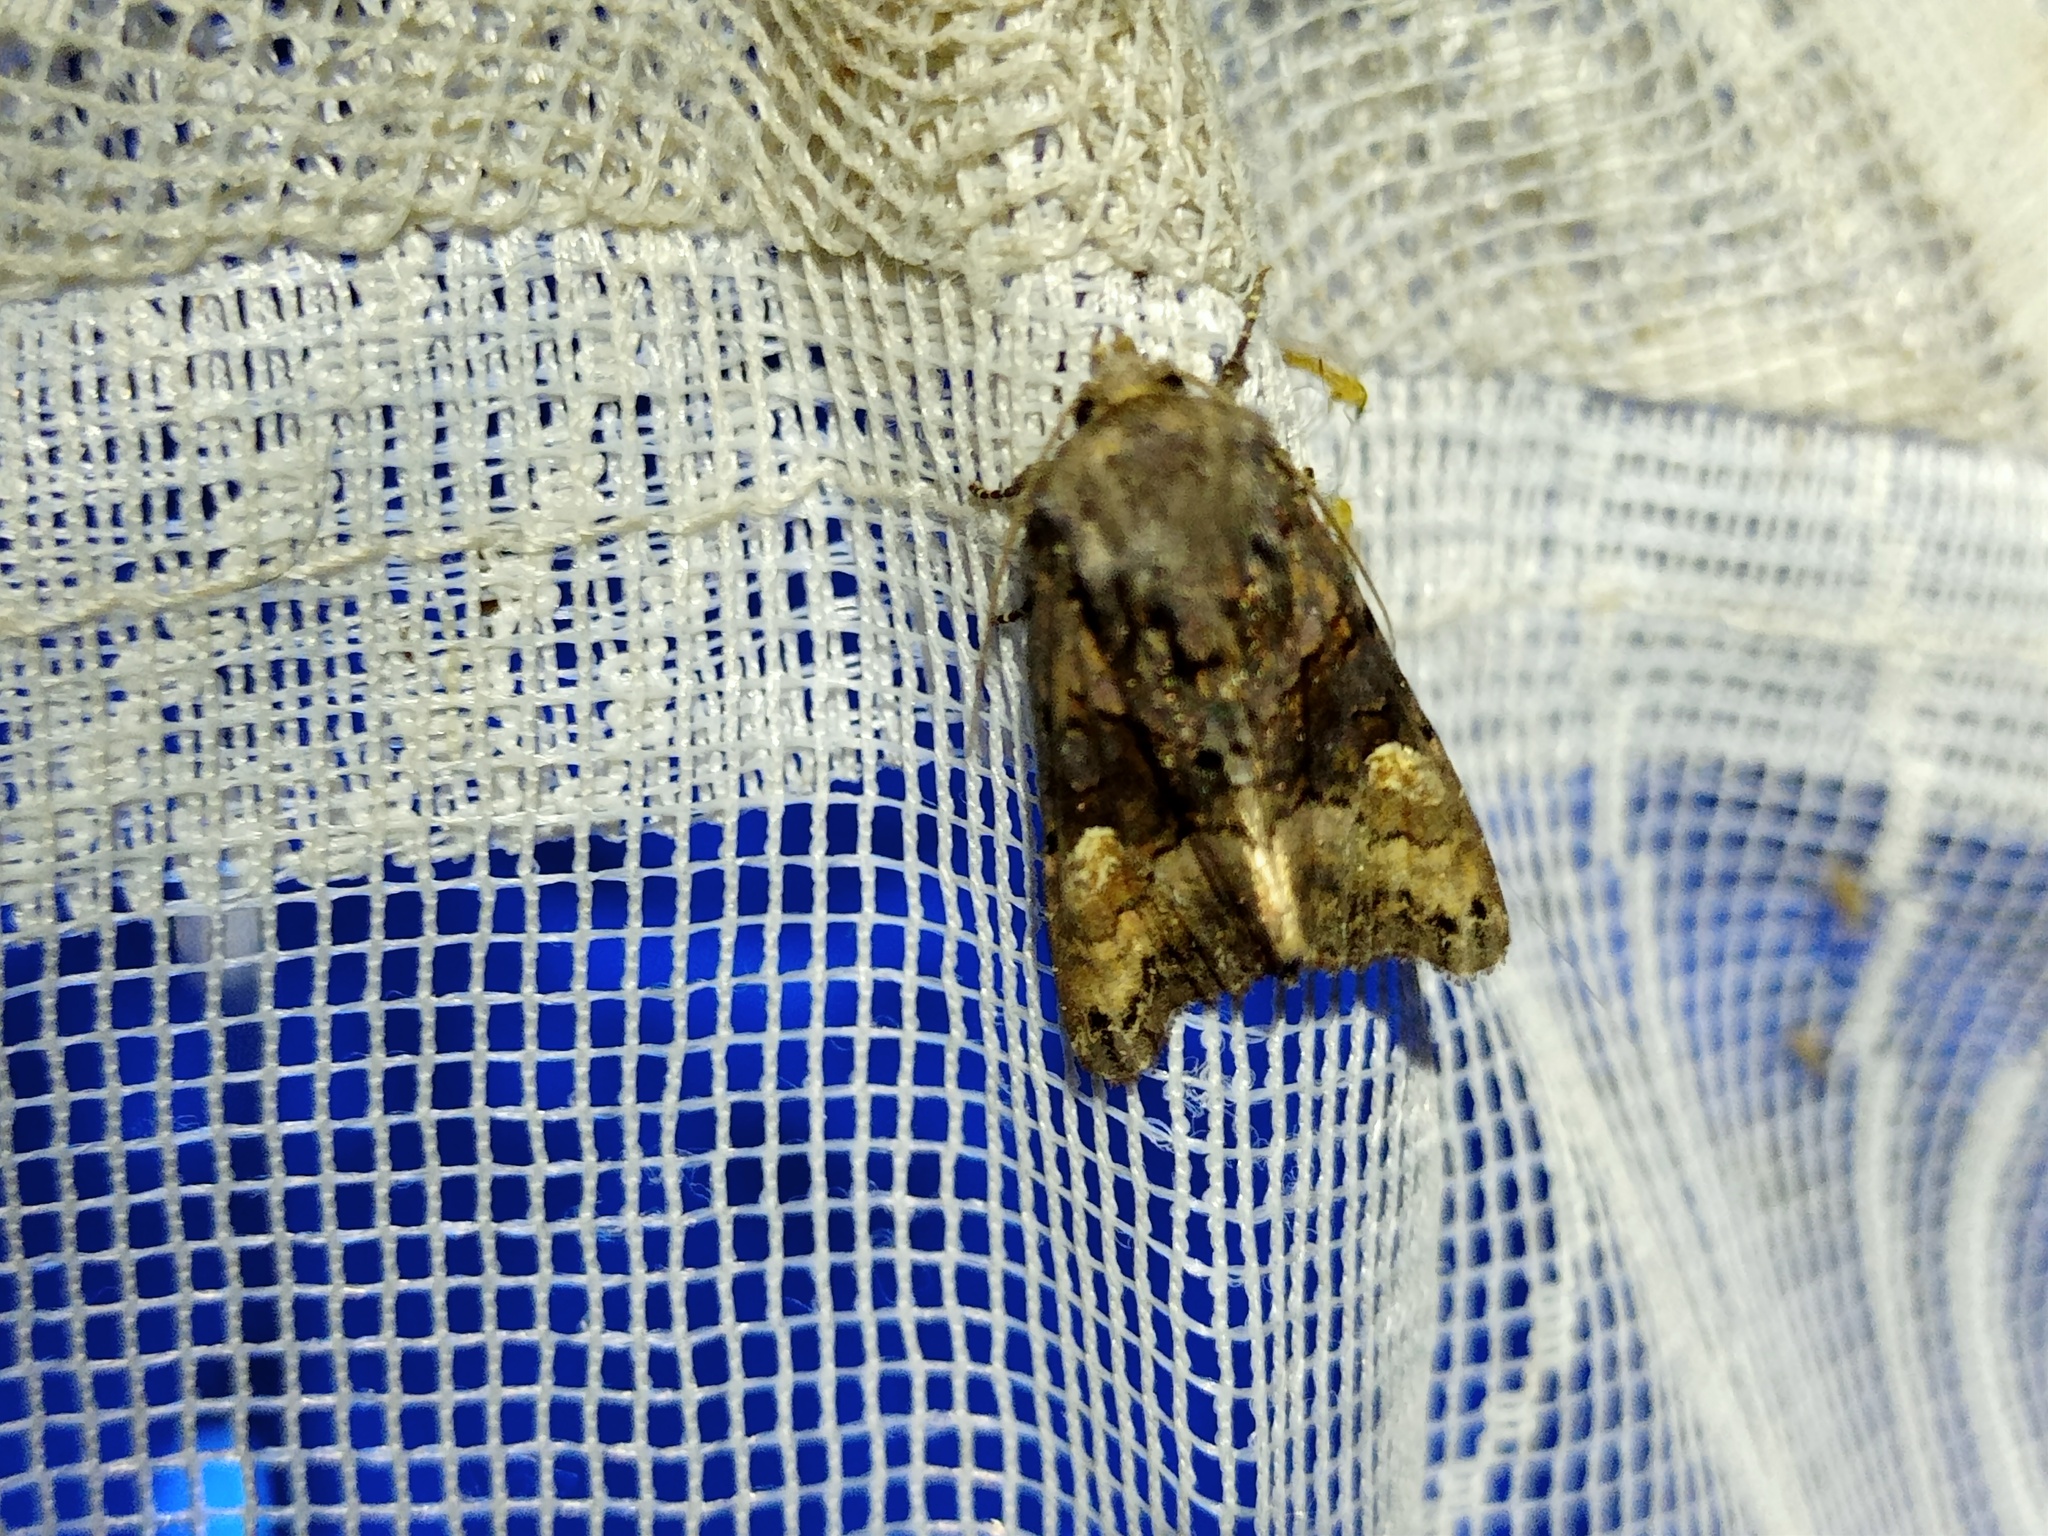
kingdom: Animalia
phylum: Arthropoda
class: Insecta
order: Lepidoptera
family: Noctuidae
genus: Euplexia
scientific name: Euplexia lucipara
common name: Small angle shades
